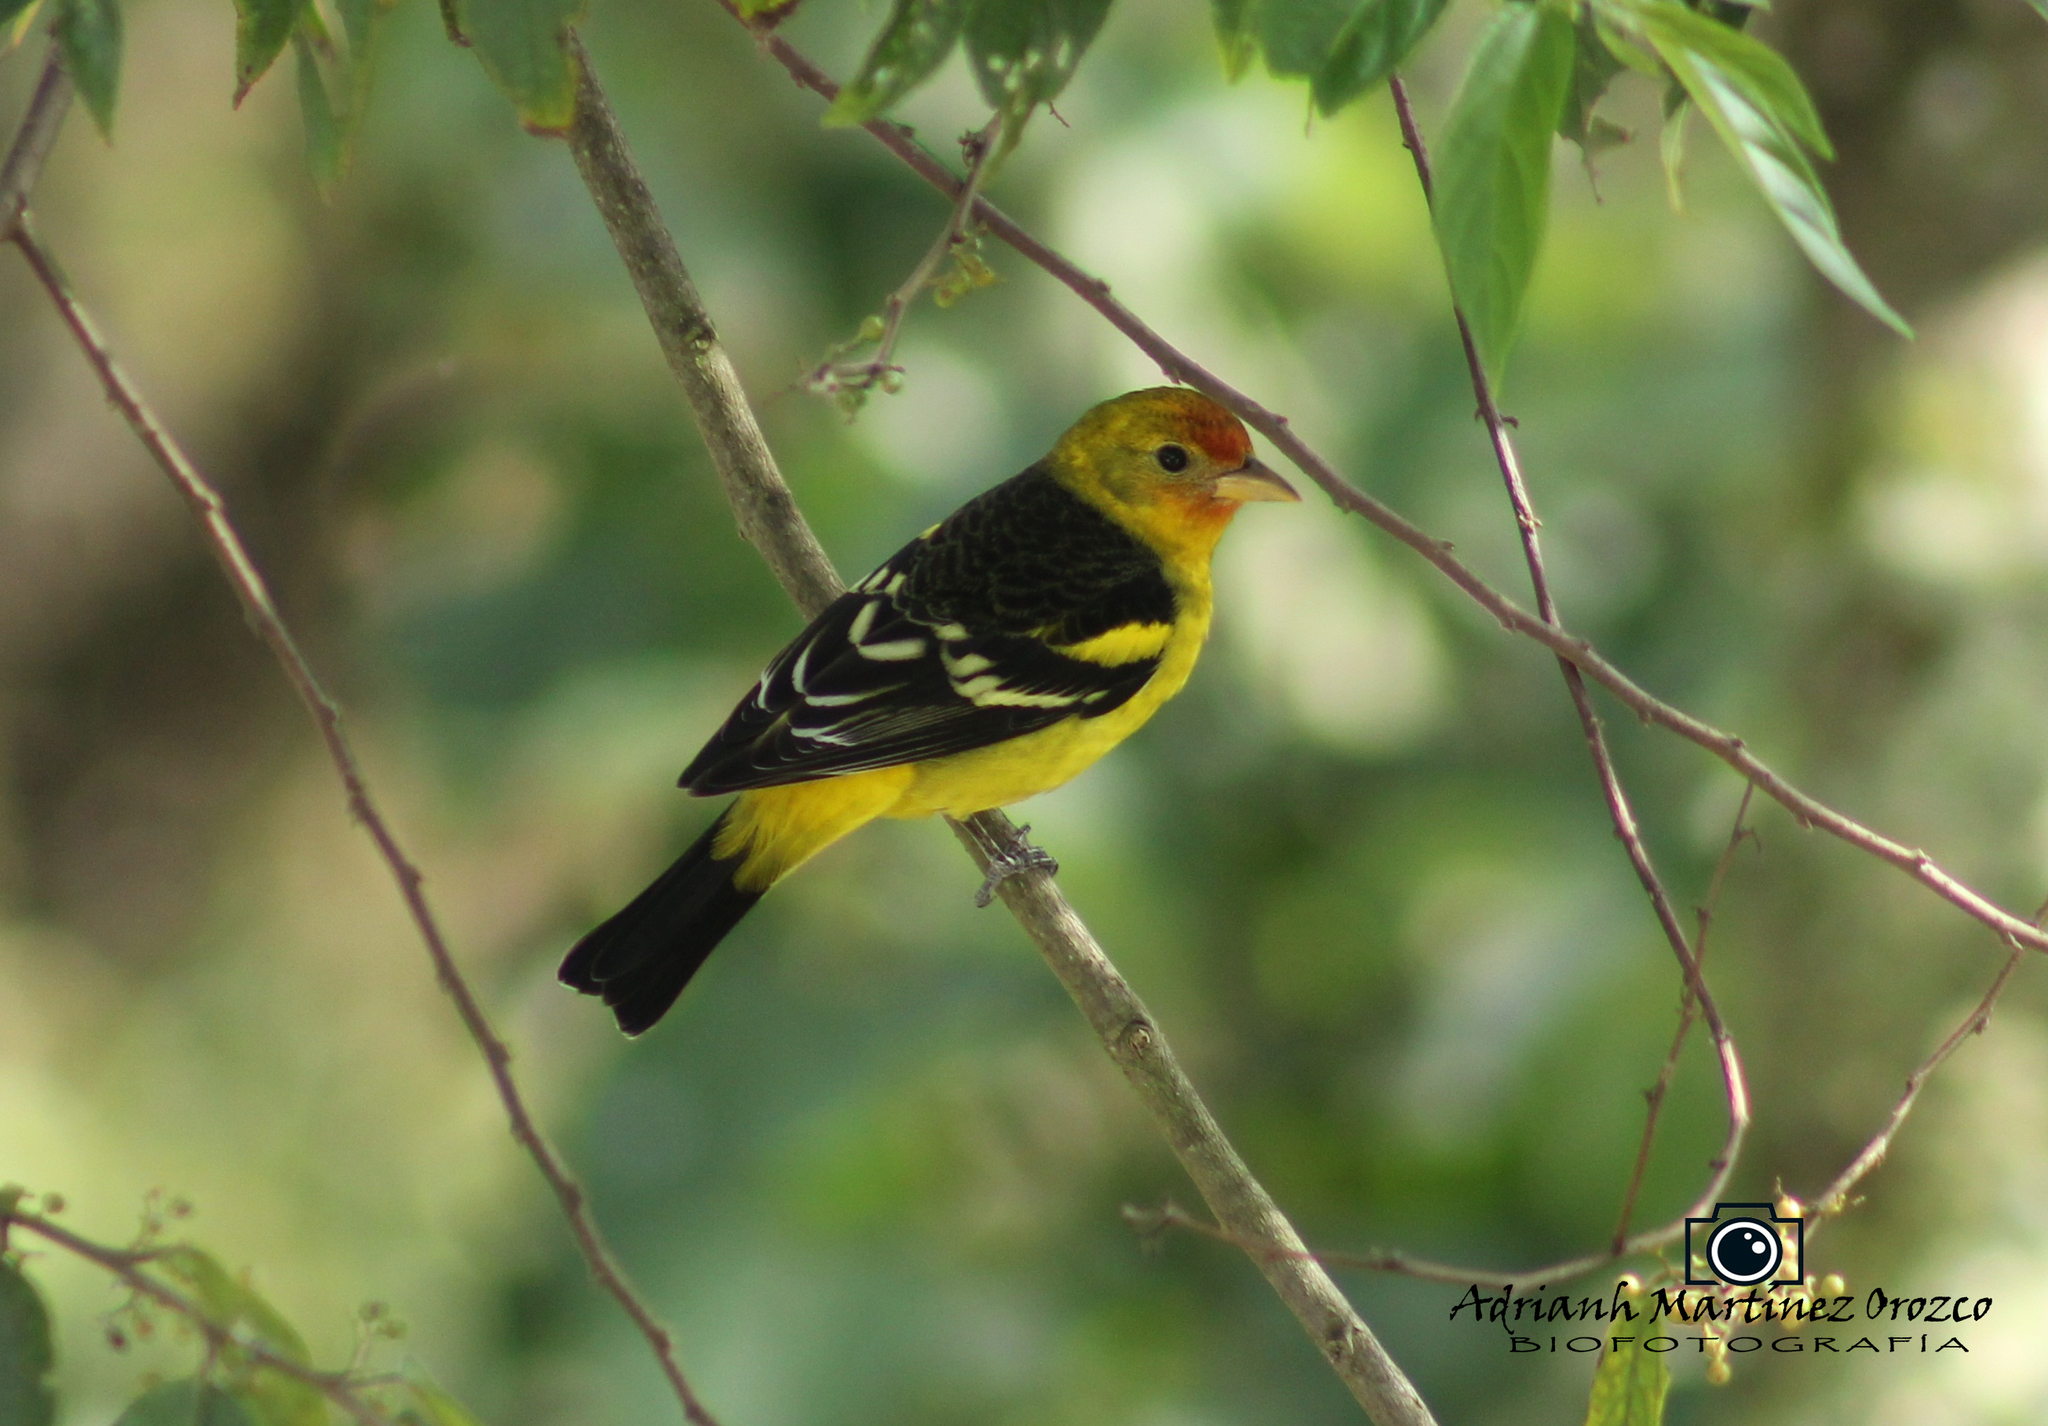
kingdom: Animalia
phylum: Chordata
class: Aves
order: Passeriformes
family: Cardinalidae
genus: Piranga
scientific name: Piranga ludoviciana
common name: Western tanager
